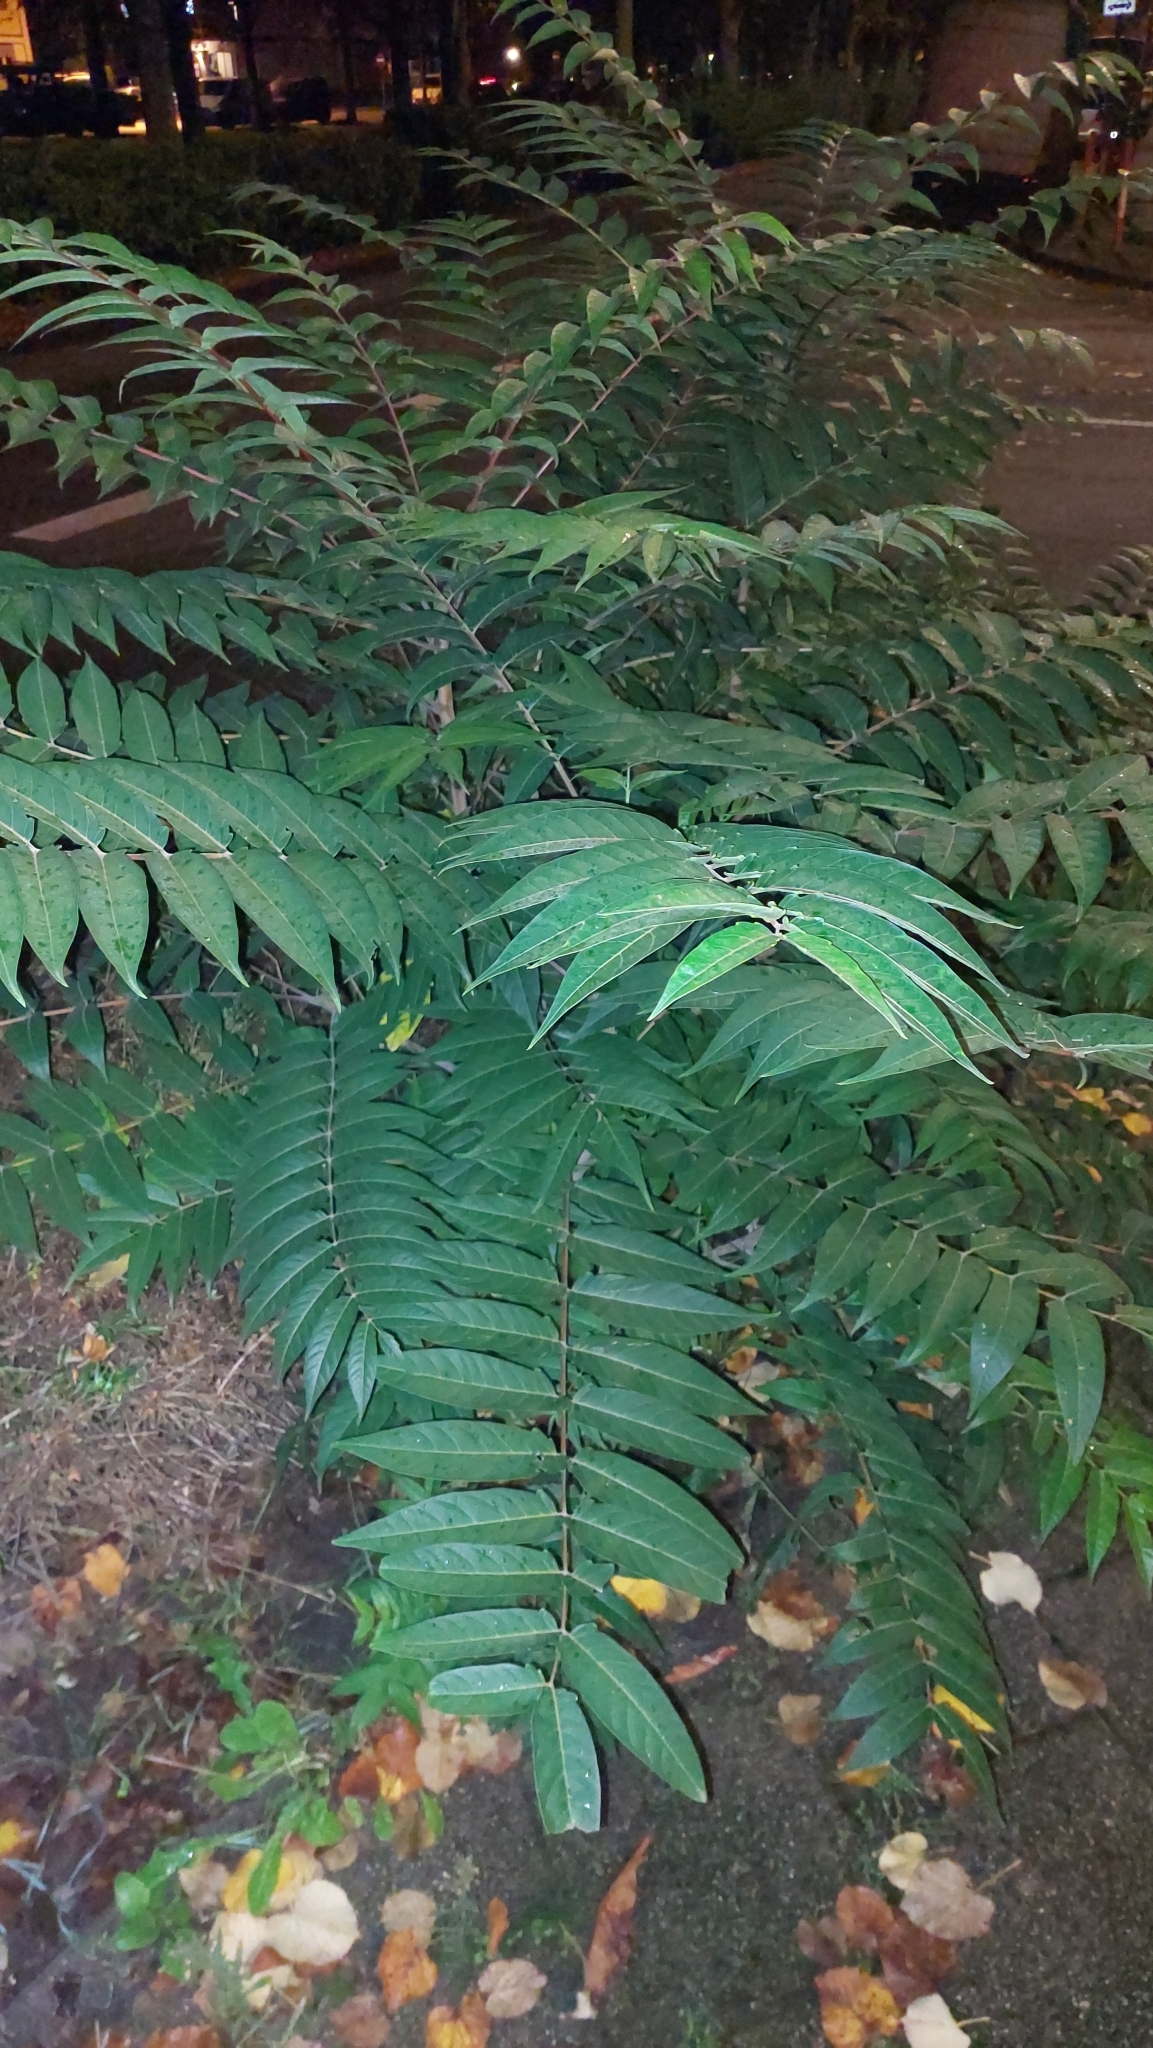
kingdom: Plantae
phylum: Tracheophyta
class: Magnoliopsida
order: Sapindales
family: Simaroubaceae
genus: Ailanthus
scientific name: Ailanthus altissima
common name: Tree-of-heaven
